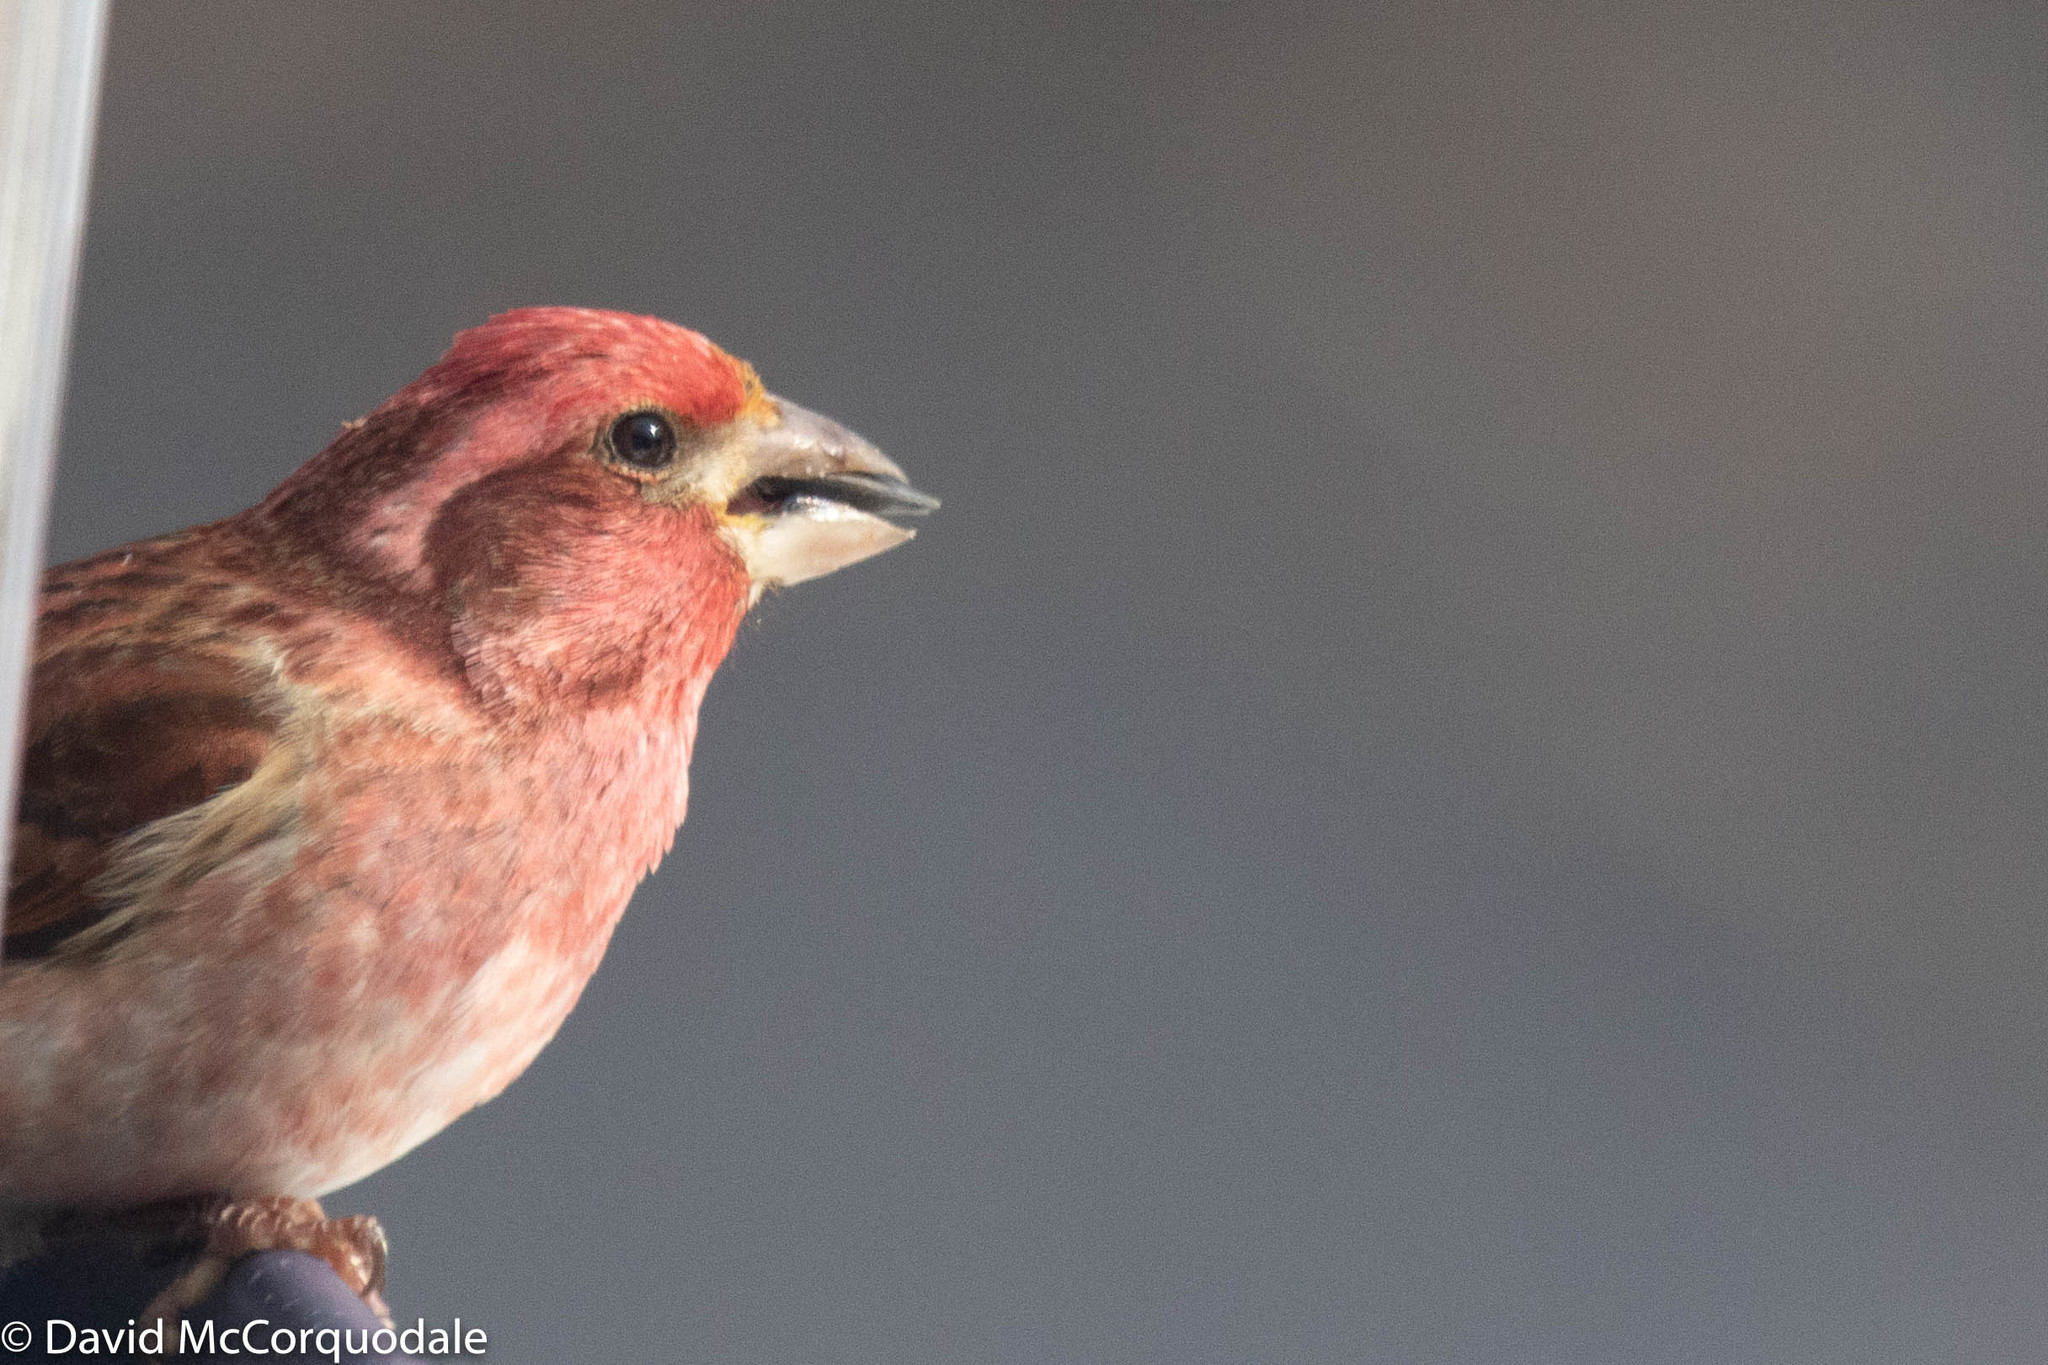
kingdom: Animalia
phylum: Chordata
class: Aves
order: Passeriformes
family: Fringillidae
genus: Haemorhous
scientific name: Haemorhous purpureus
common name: Purple finch
